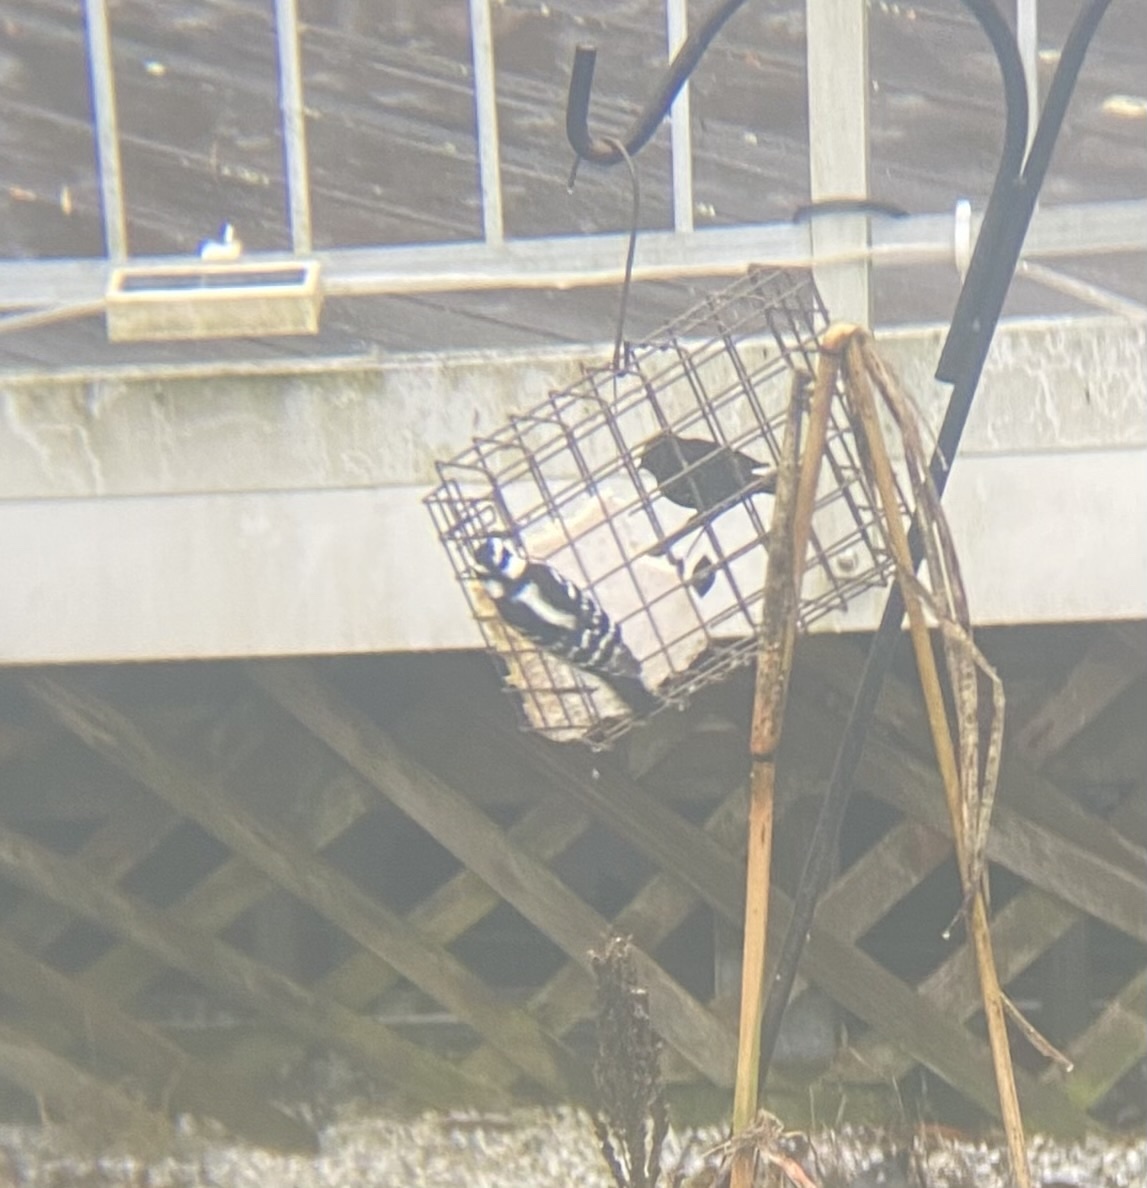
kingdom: Animalia
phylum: Chordata
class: Aves
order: Piciformes
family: Picidae
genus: Dryobates
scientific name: Dryobates pubescens
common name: Downy woodpecker
